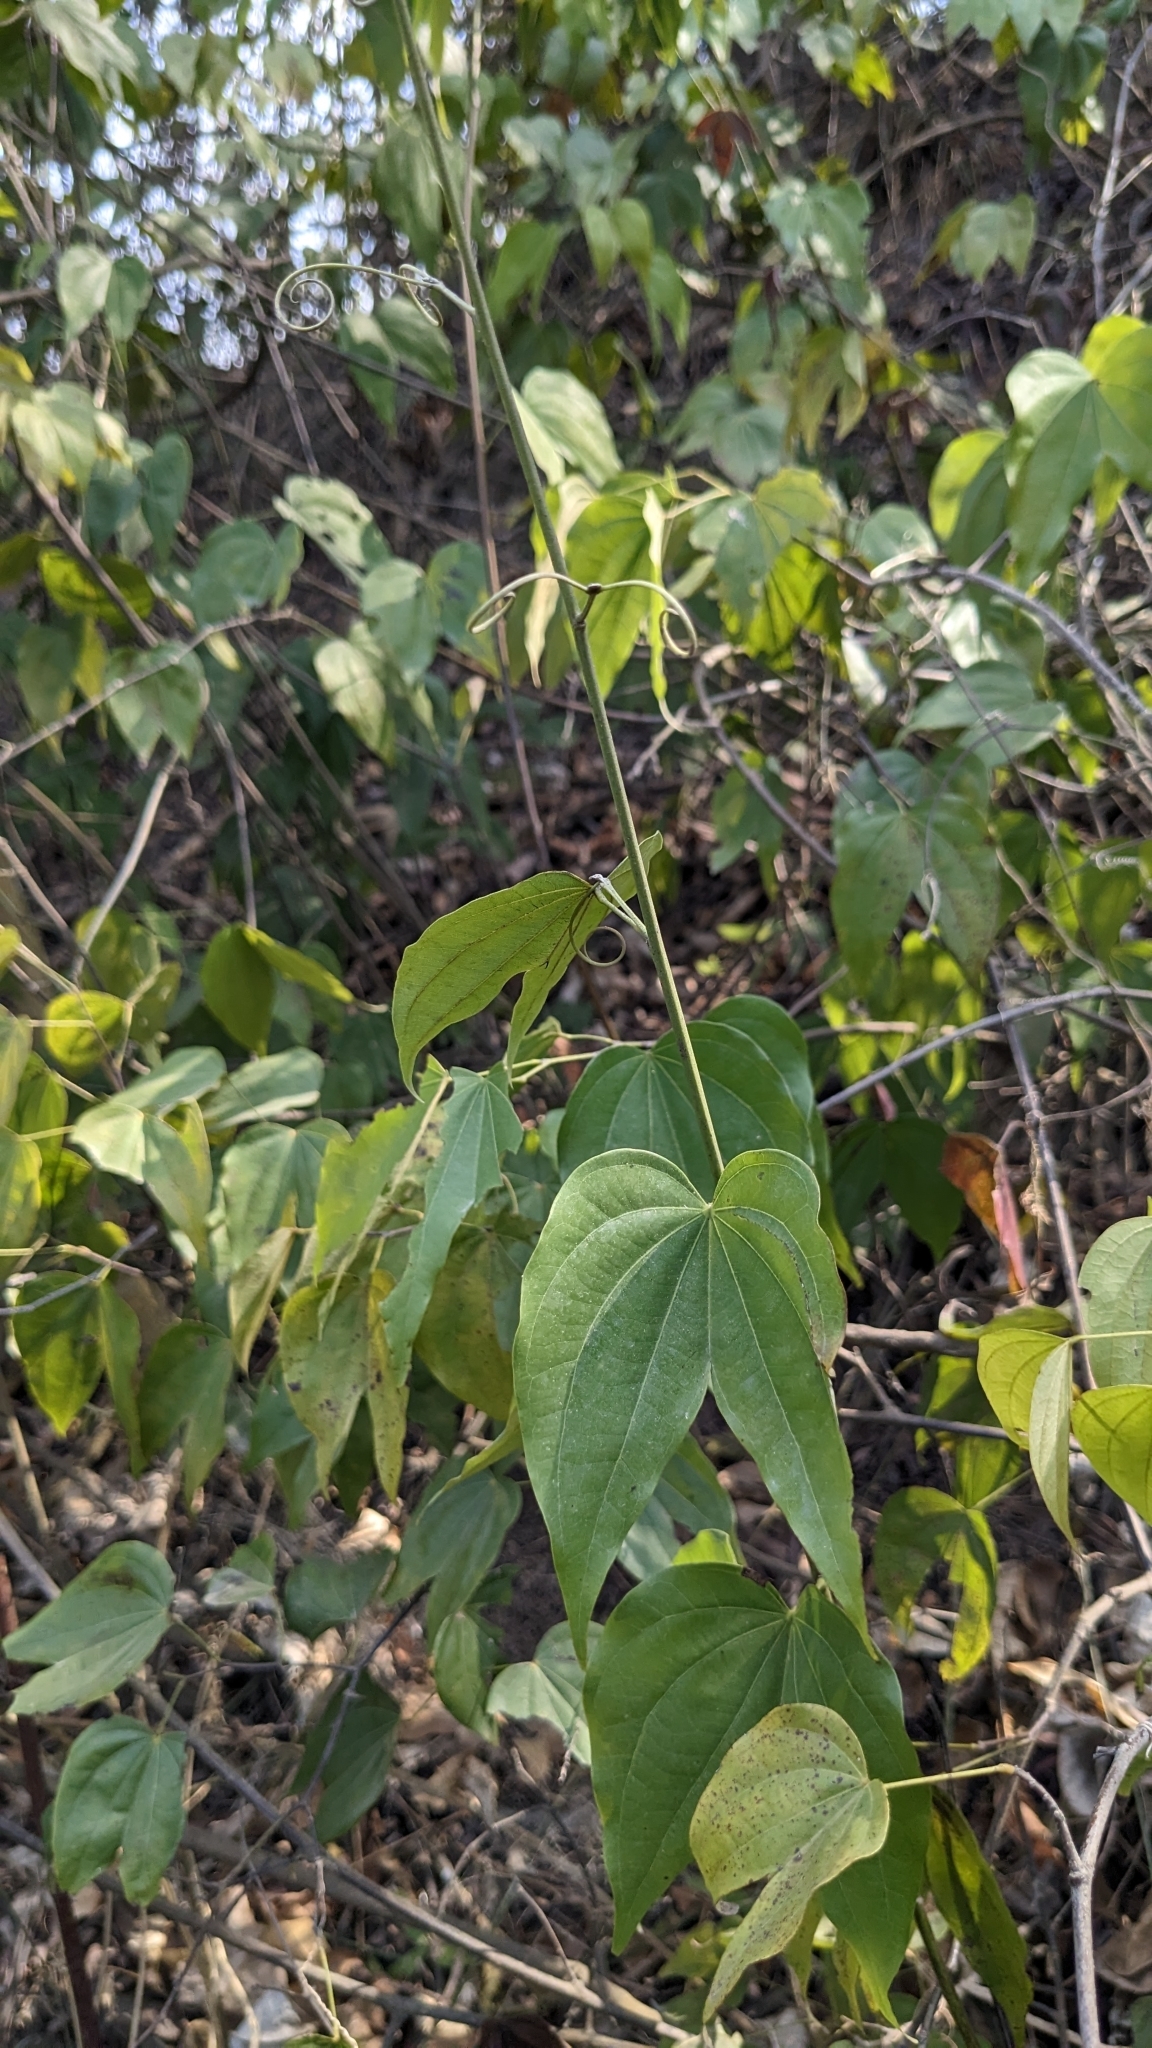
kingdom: Plantae
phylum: Tracheophyta
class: Magnoliopsida
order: Fabales
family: Fabaceae
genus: Phanera
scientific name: Phanera championii
